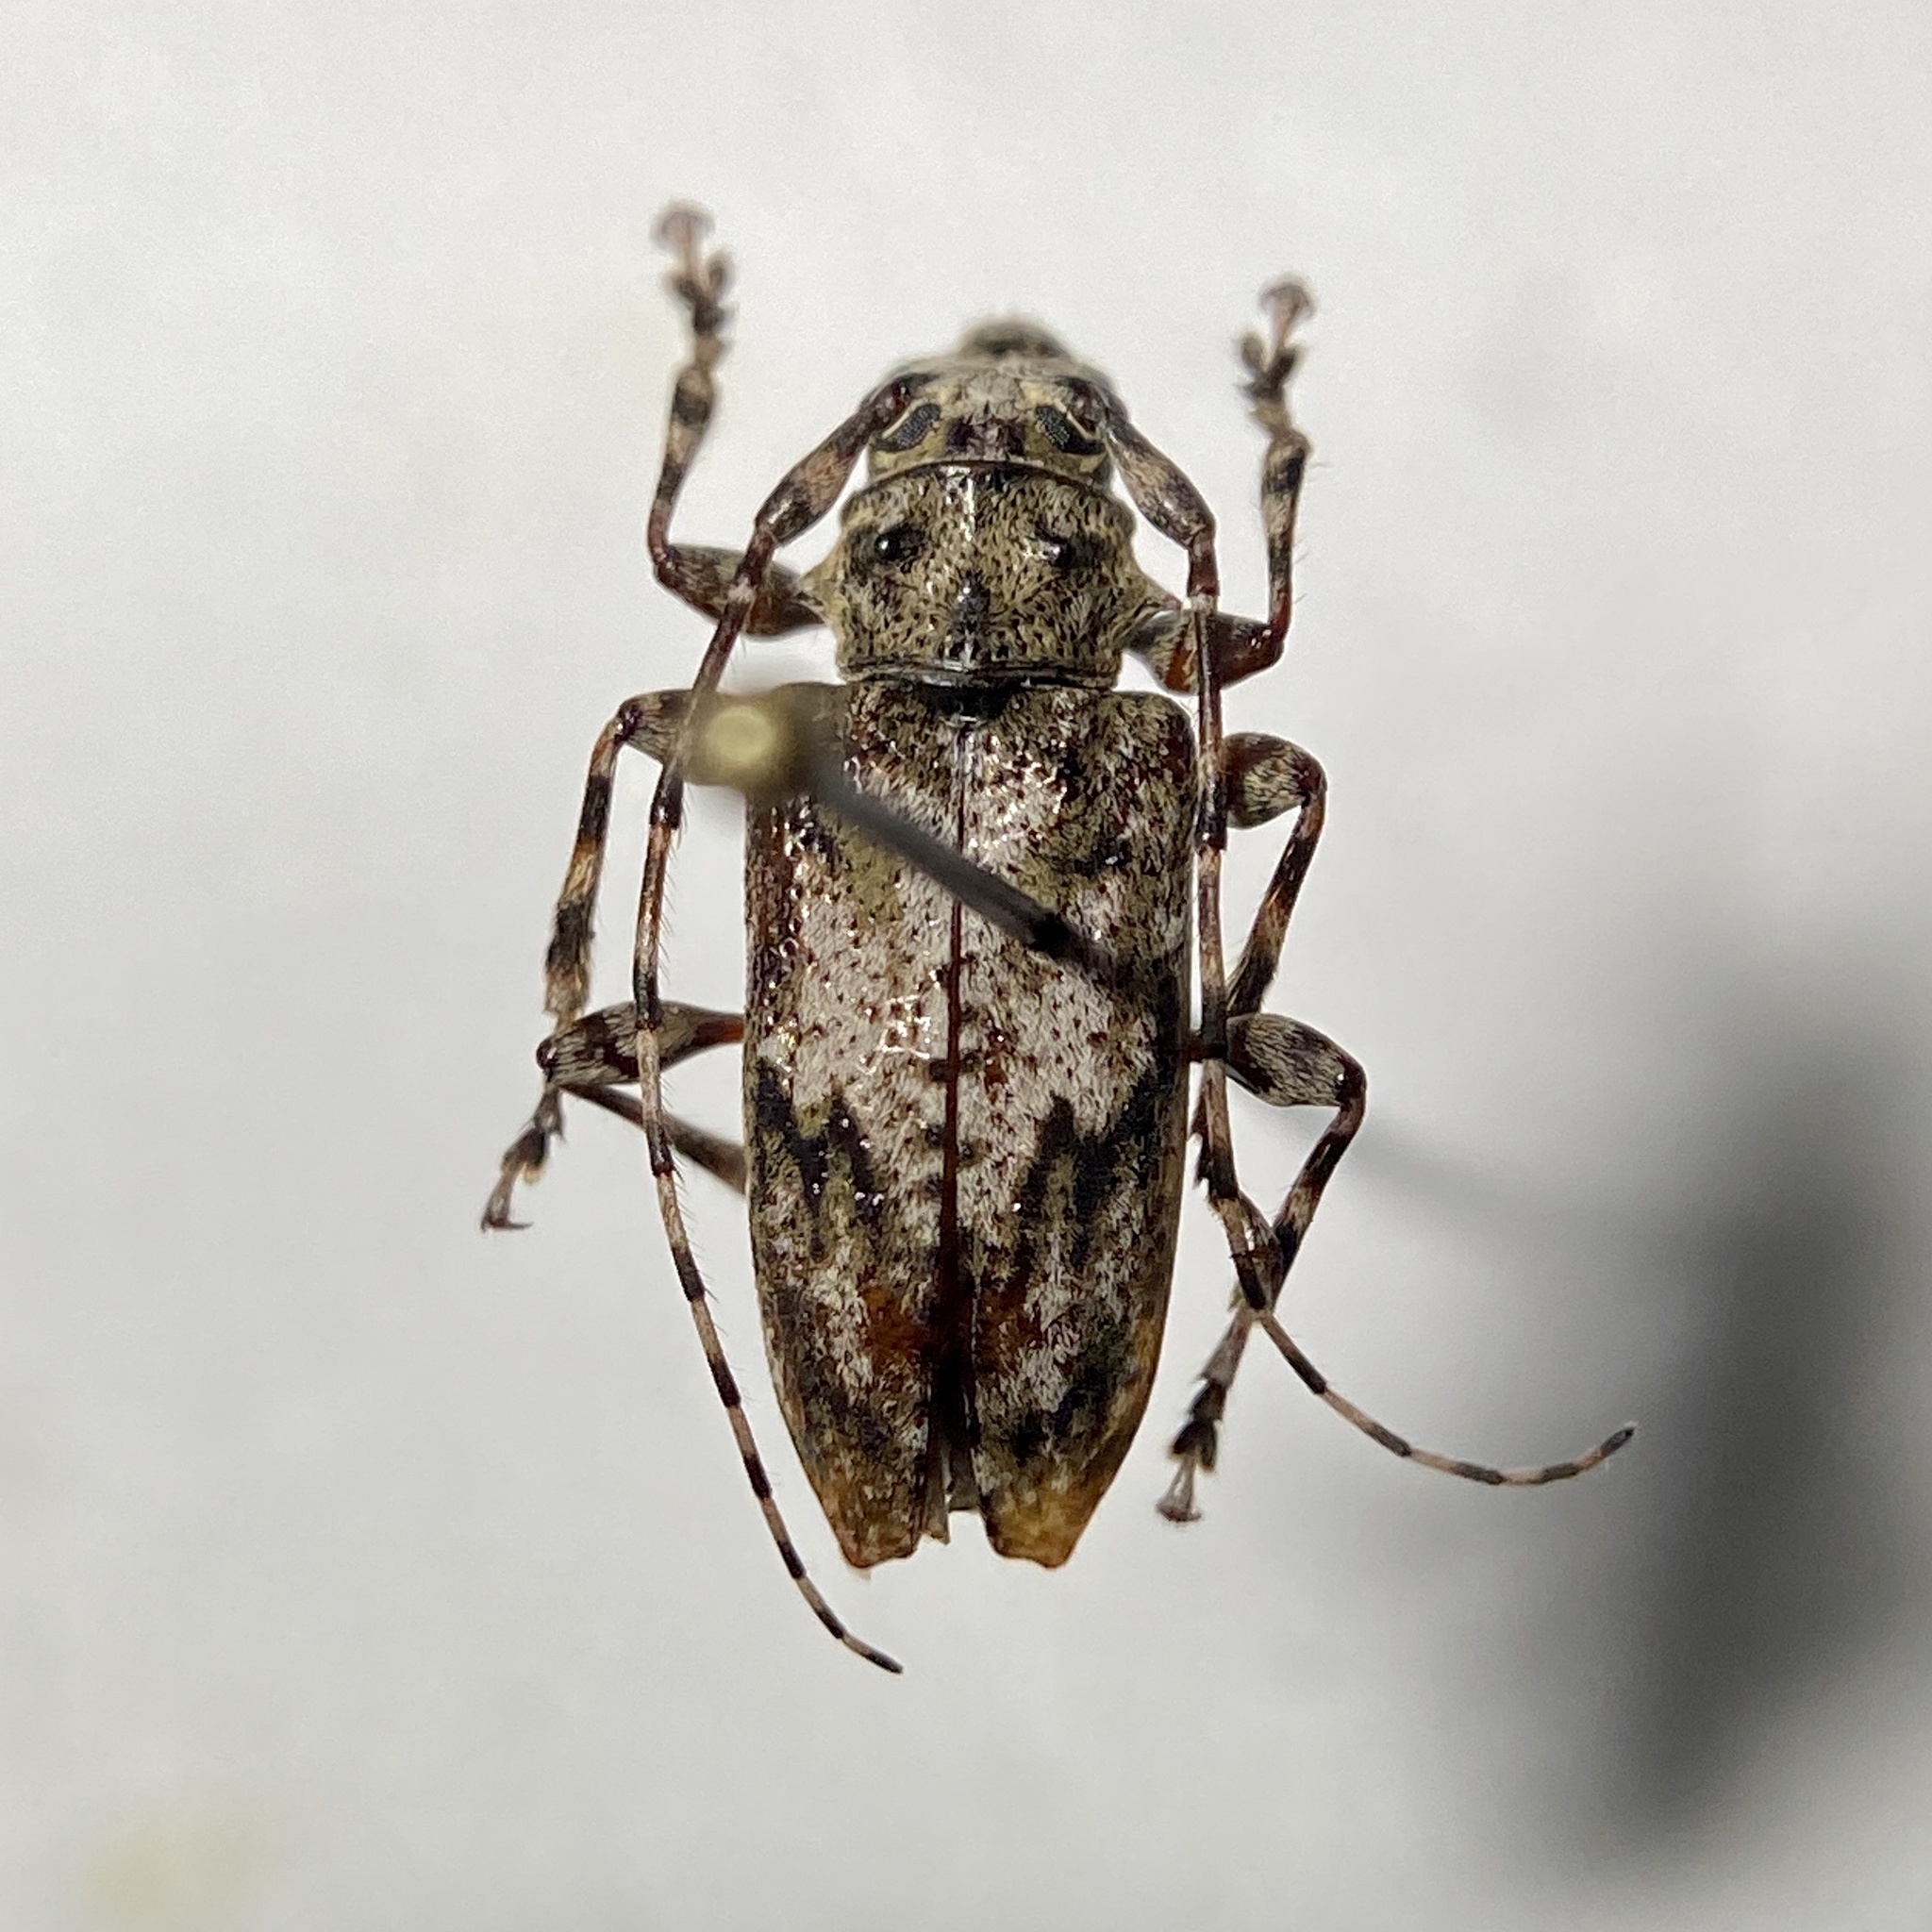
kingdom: Animalia
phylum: Arthropoda
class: Insecta
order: Coleoptera
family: Cerambycidae
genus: Aegomorphus
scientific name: Aegomorphus modestus
